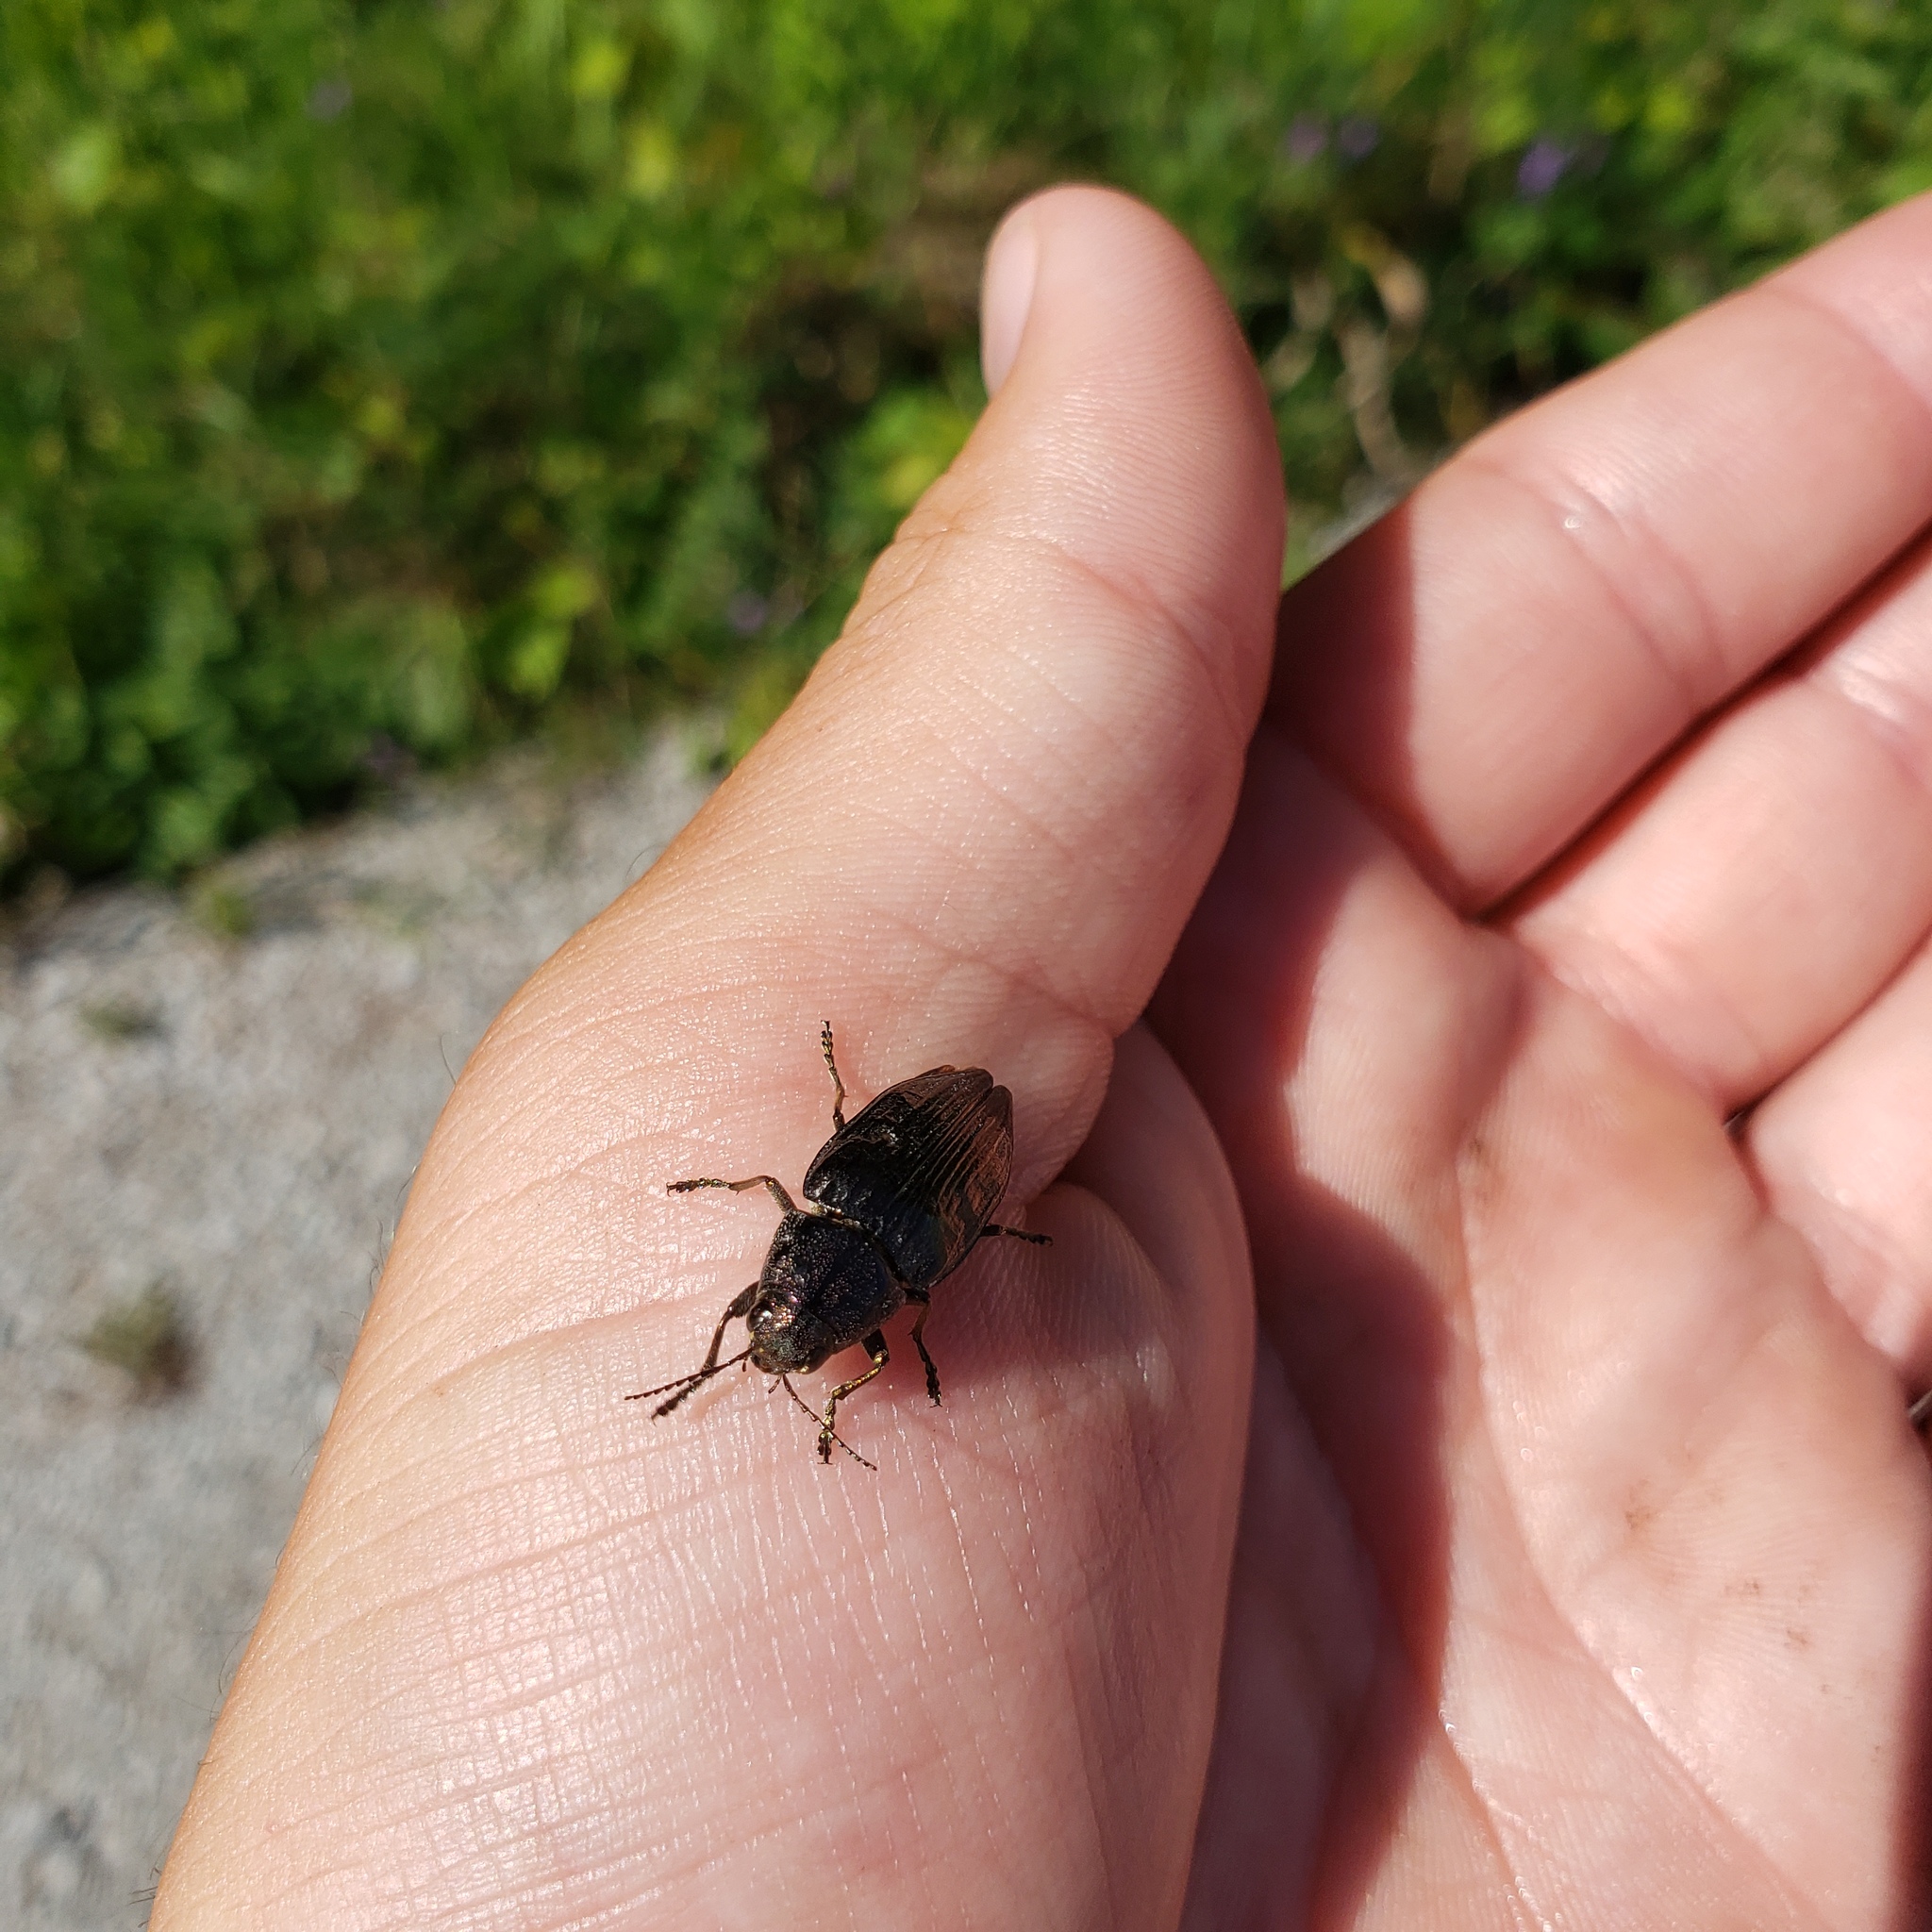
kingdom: Animalia
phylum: Arthropoda
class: Insecta
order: Coleoptera
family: Buprestidae
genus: Buprestis
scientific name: Buprestis maculativentris
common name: Spotted-belly buprestid beetle
